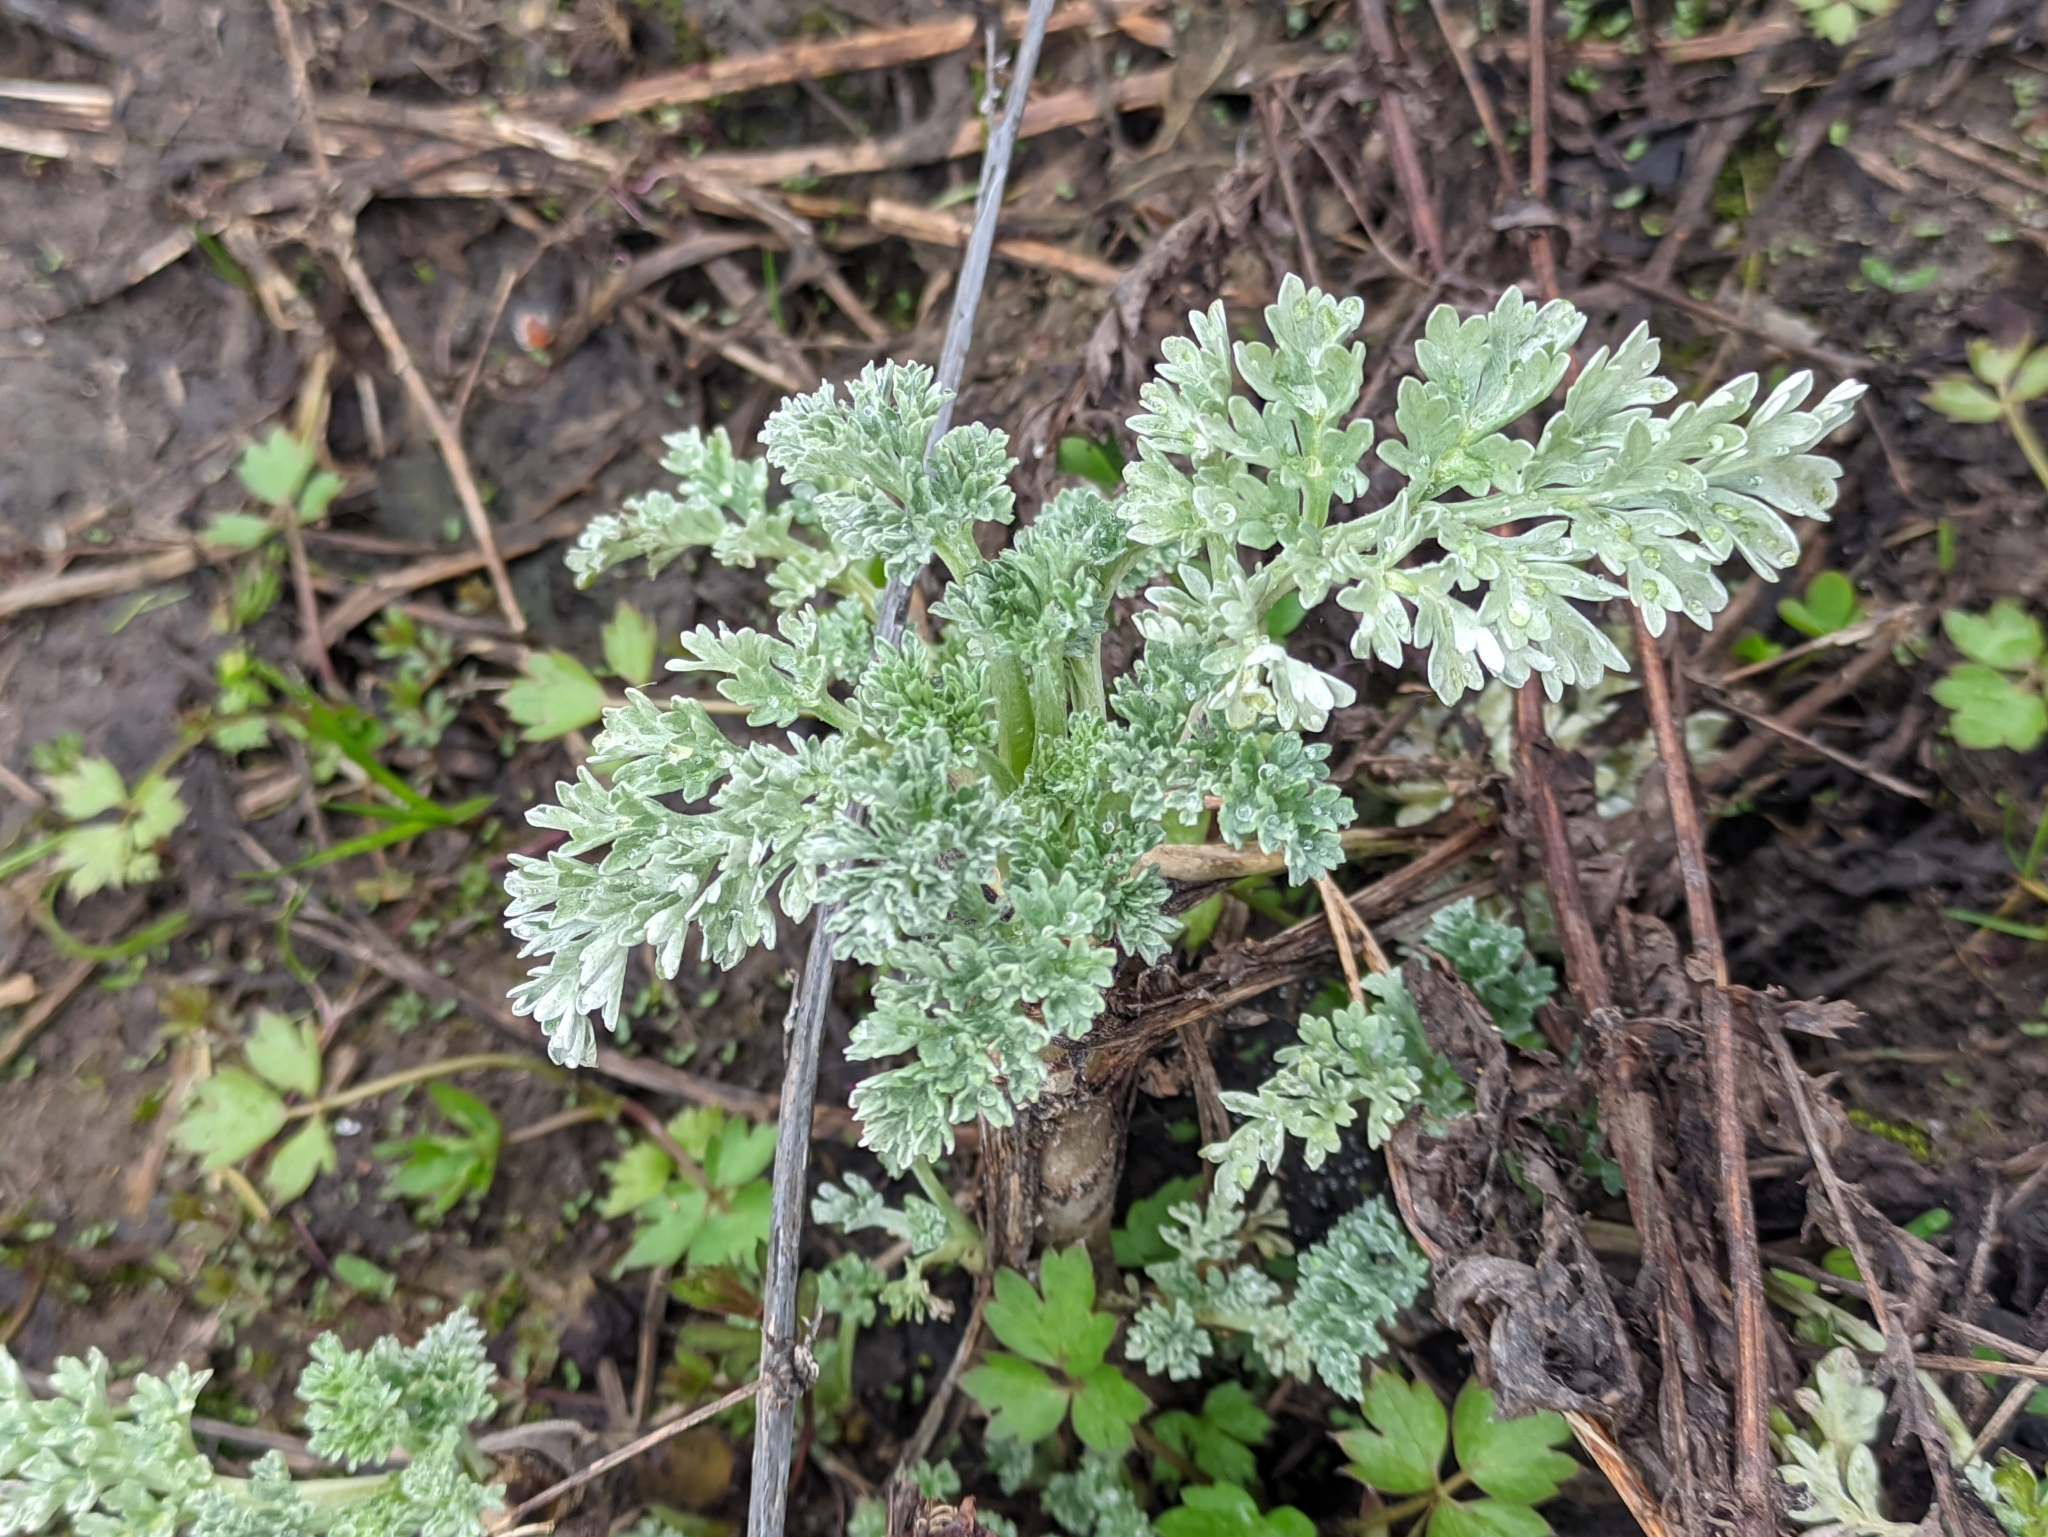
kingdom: Plantae
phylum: Tracheophyta
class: Magnoliopsida
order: Asterales
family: Asteraceae
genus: Artemisia
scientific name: Artemisia absinthium
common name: Wormwood
